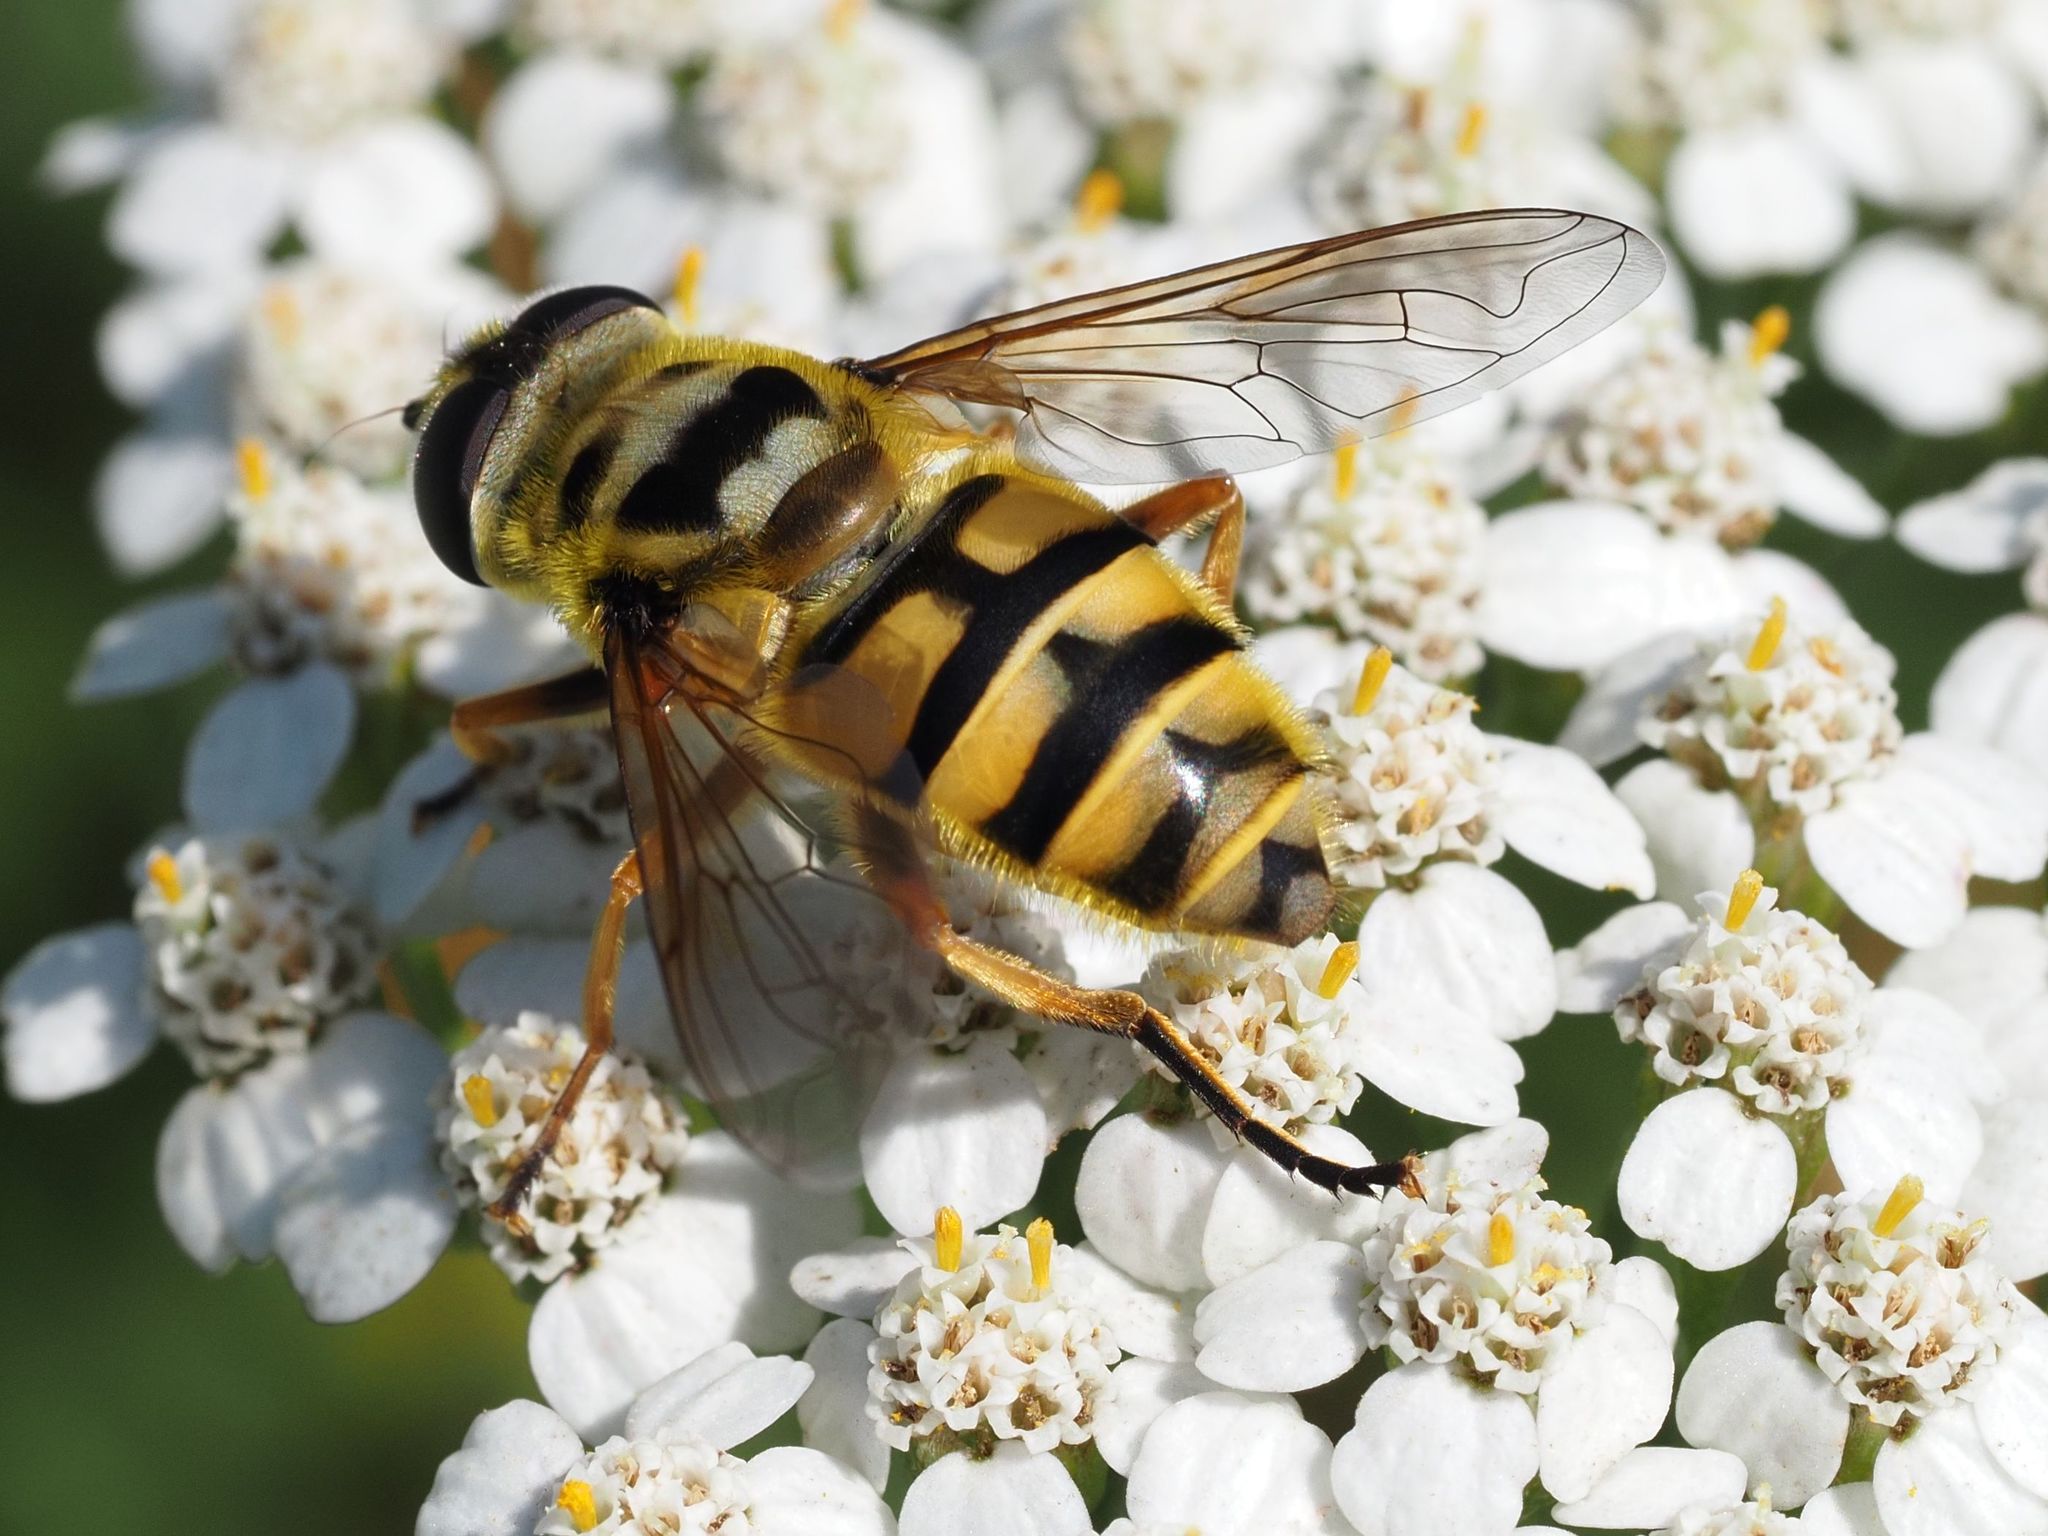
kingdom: Animalia
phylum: Arthropoda
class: Insecta
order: Diptera
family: Syrphidae
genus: Myathropa
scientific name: Myathropa florea
